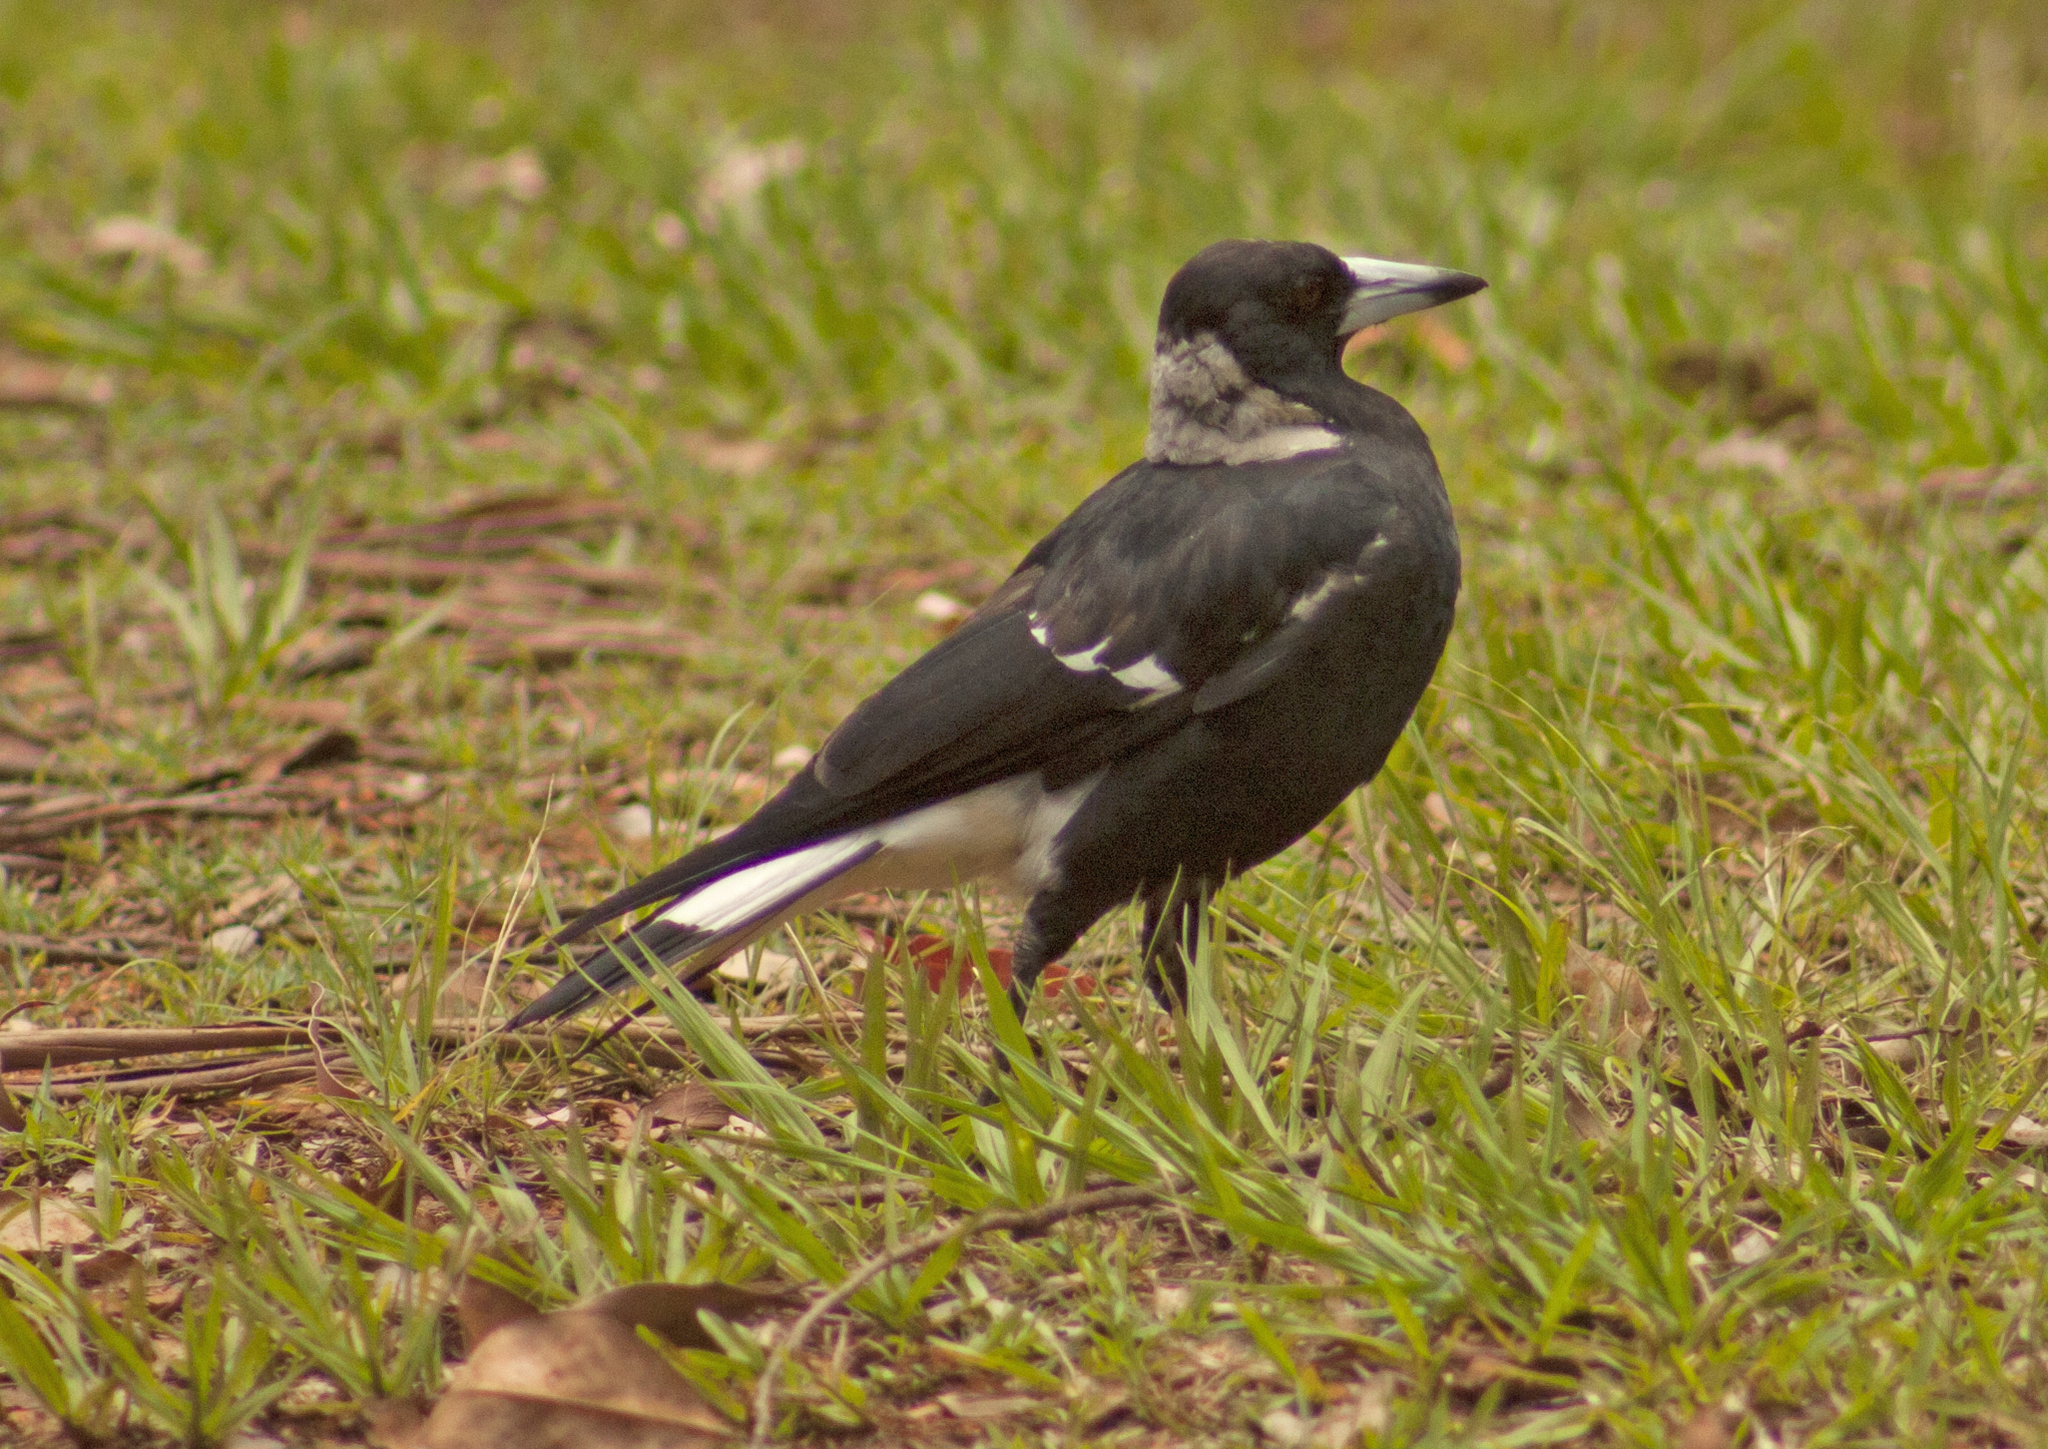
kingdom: Animalia
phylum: Chordata
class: Aves
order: Passeriformes
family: Cracticidae
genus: Gymnorhina
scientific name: Gymnorhina tibicen
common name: Australian magpie
